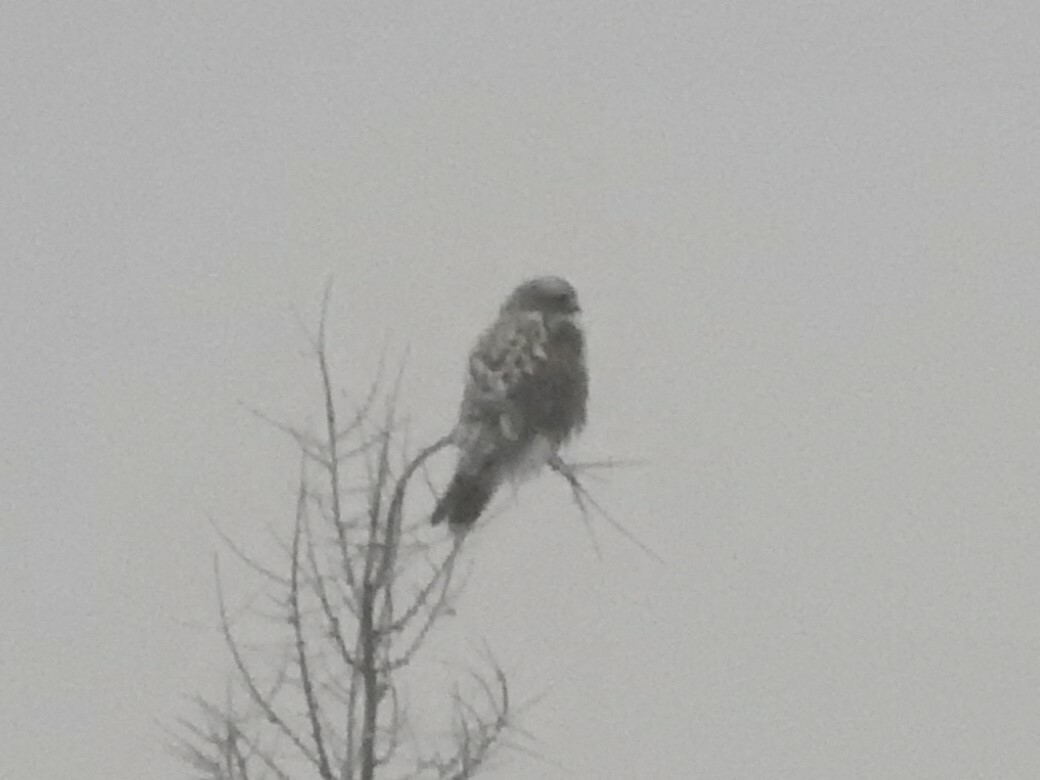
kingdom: Animalia
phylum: Chordata
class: Aves
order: Accipitriformes
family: Accipitridae
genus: Buteo
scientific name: Buteo lagopus
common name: Rough-legged buzzard
